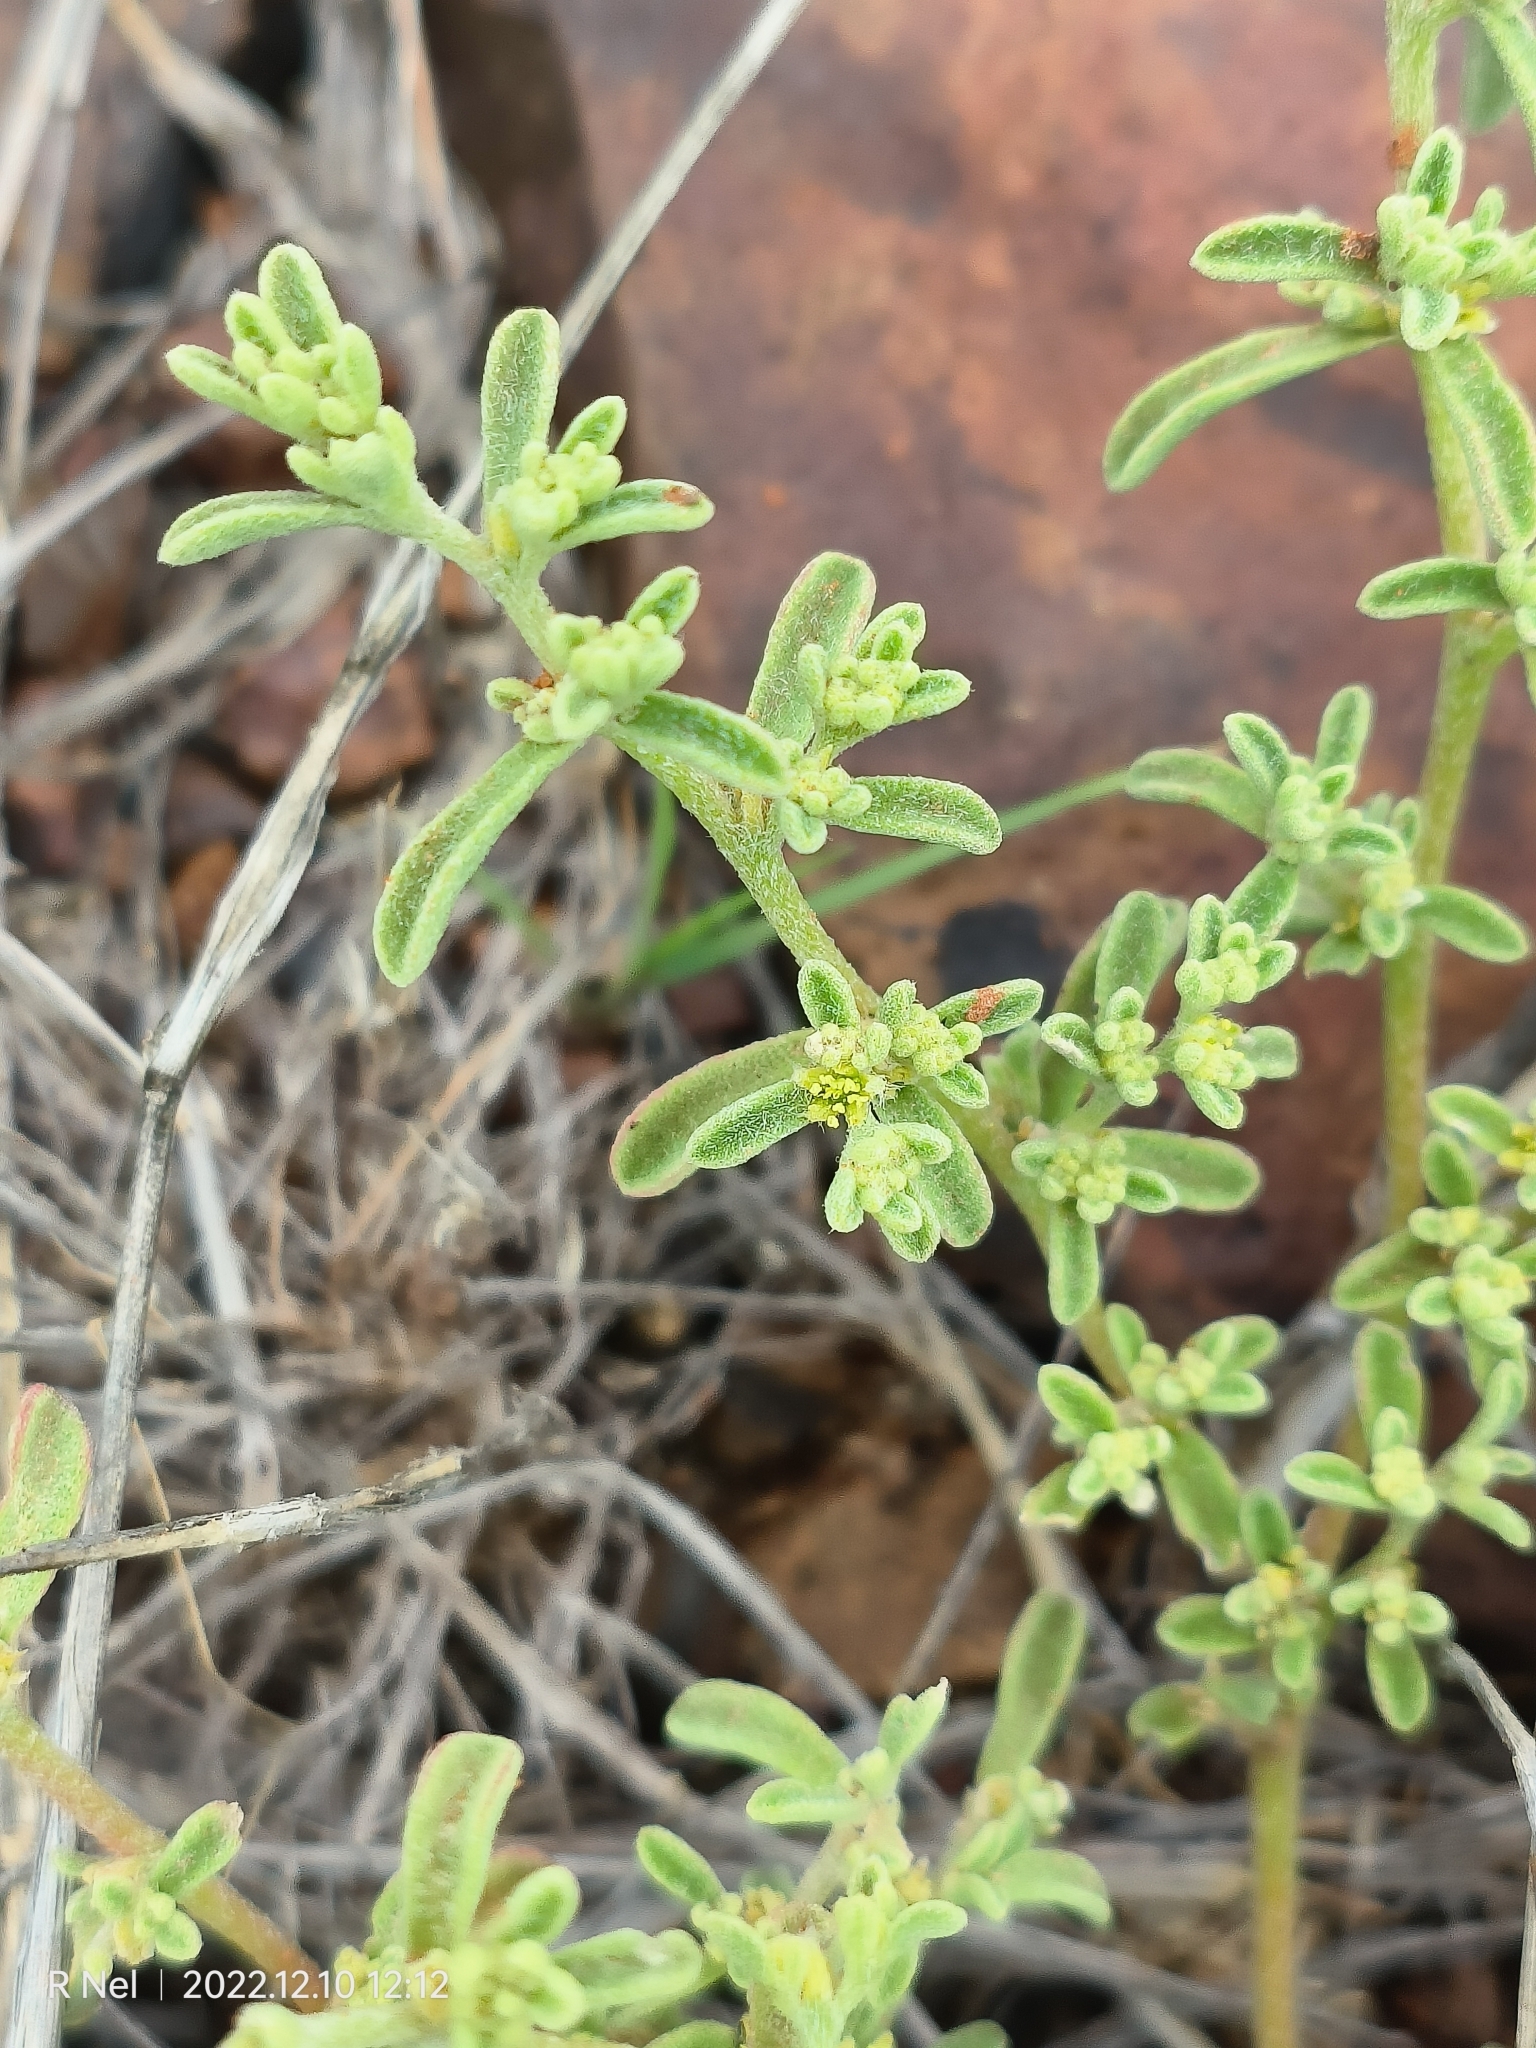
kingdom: Plantae
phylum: Tracheophyta
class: Magnoliopsida
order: Caryophyllales
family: Aizoaceae
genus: Aizoon
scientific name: Aizoon africanum
